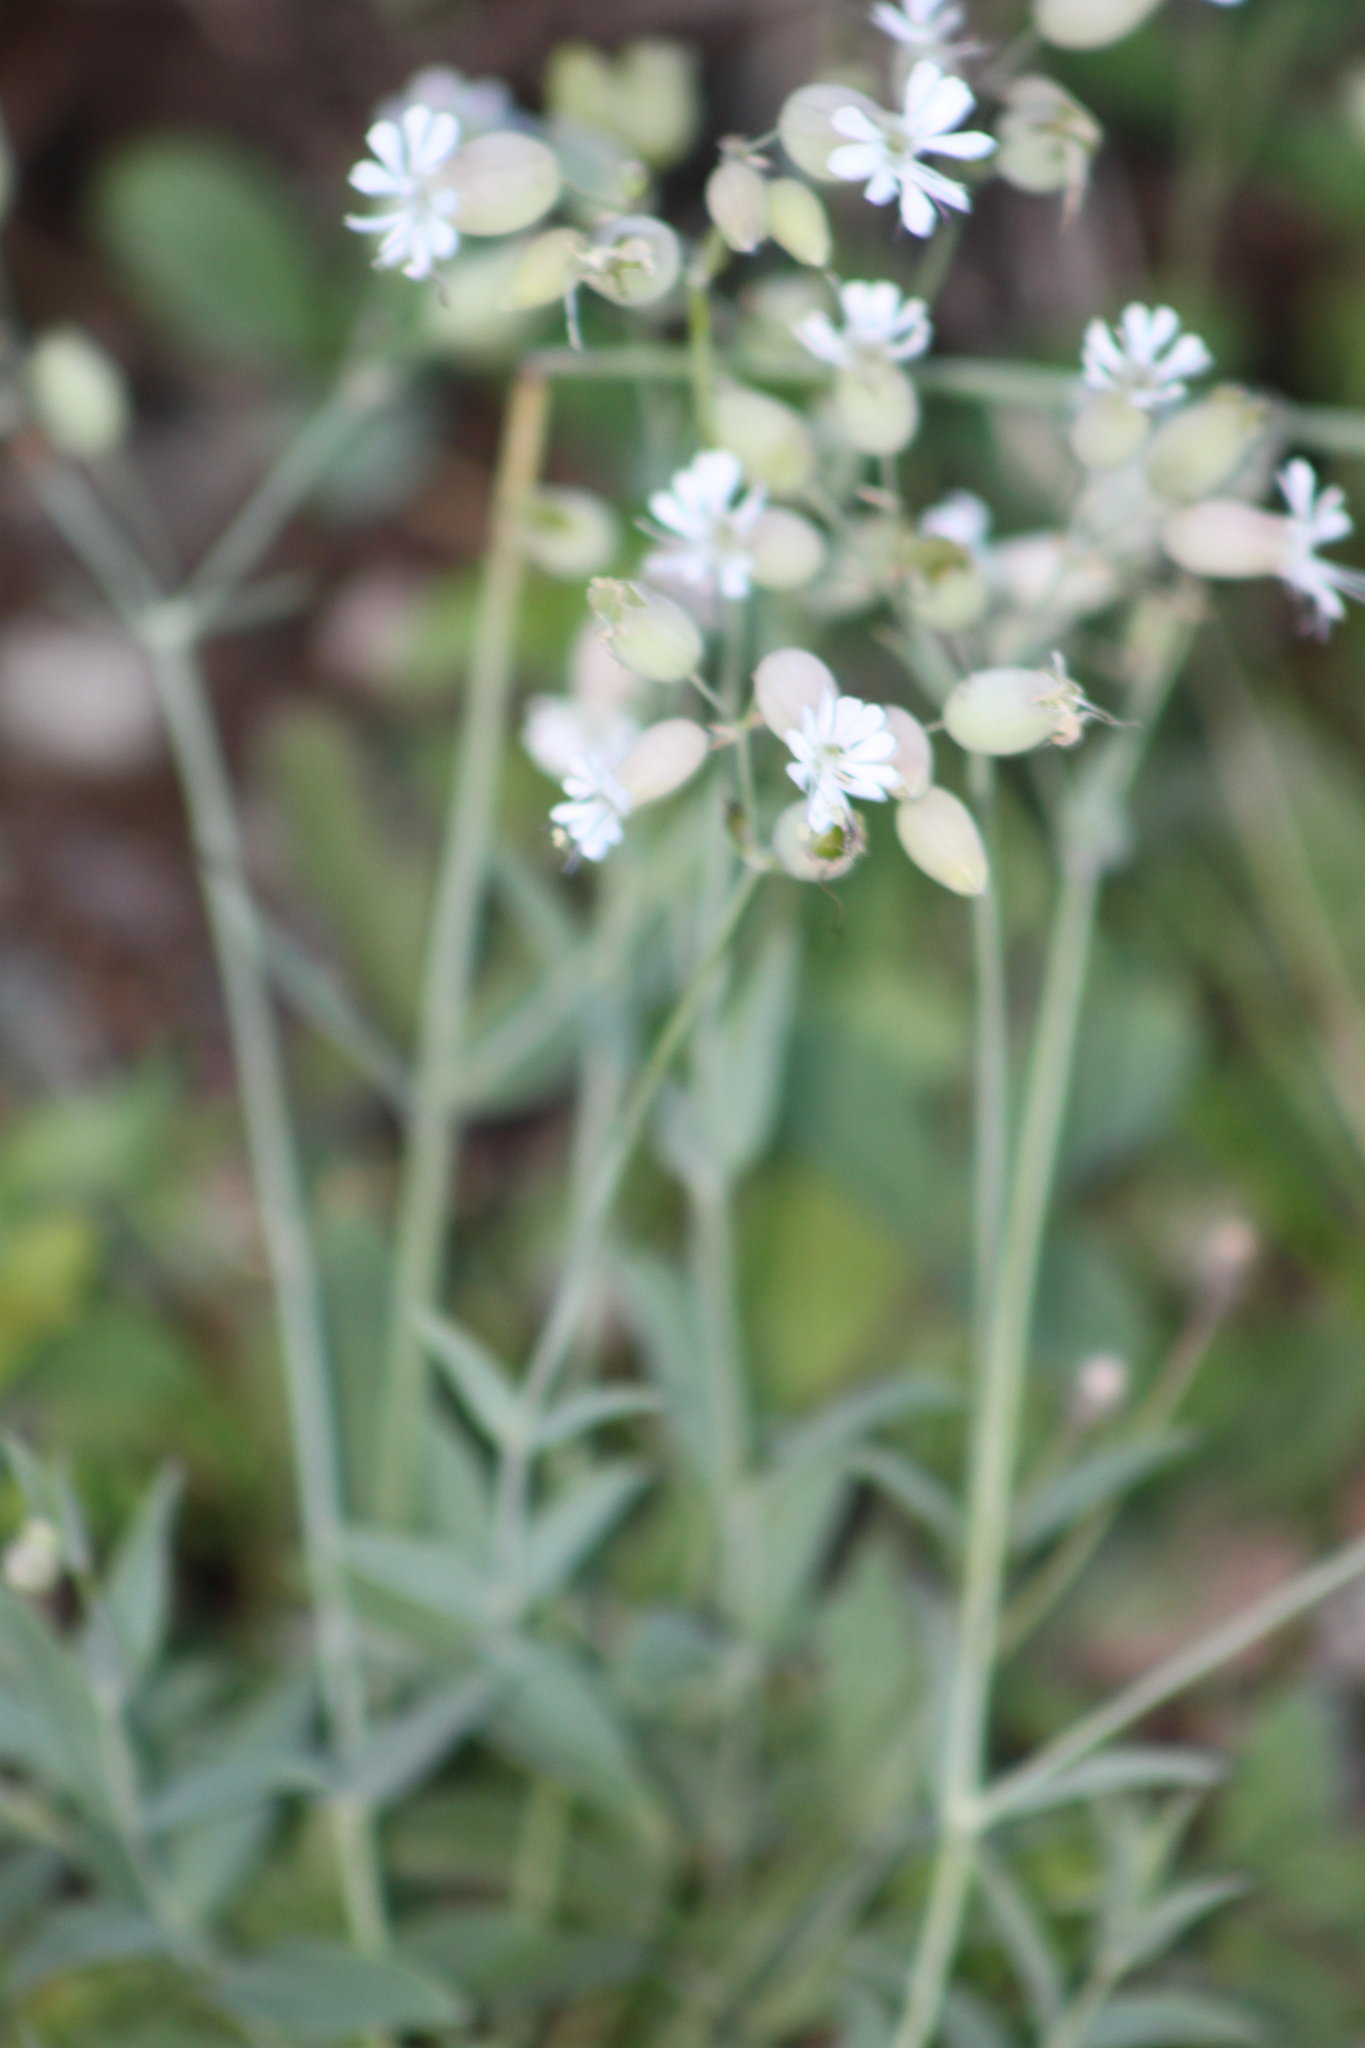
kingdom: Plantae
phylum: Tracheophyta
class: Magnoliopsida
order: Caryophyllales
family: Caryophyllaceae
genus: Silene
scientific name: Silene vulgaris
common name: Bladder campion
